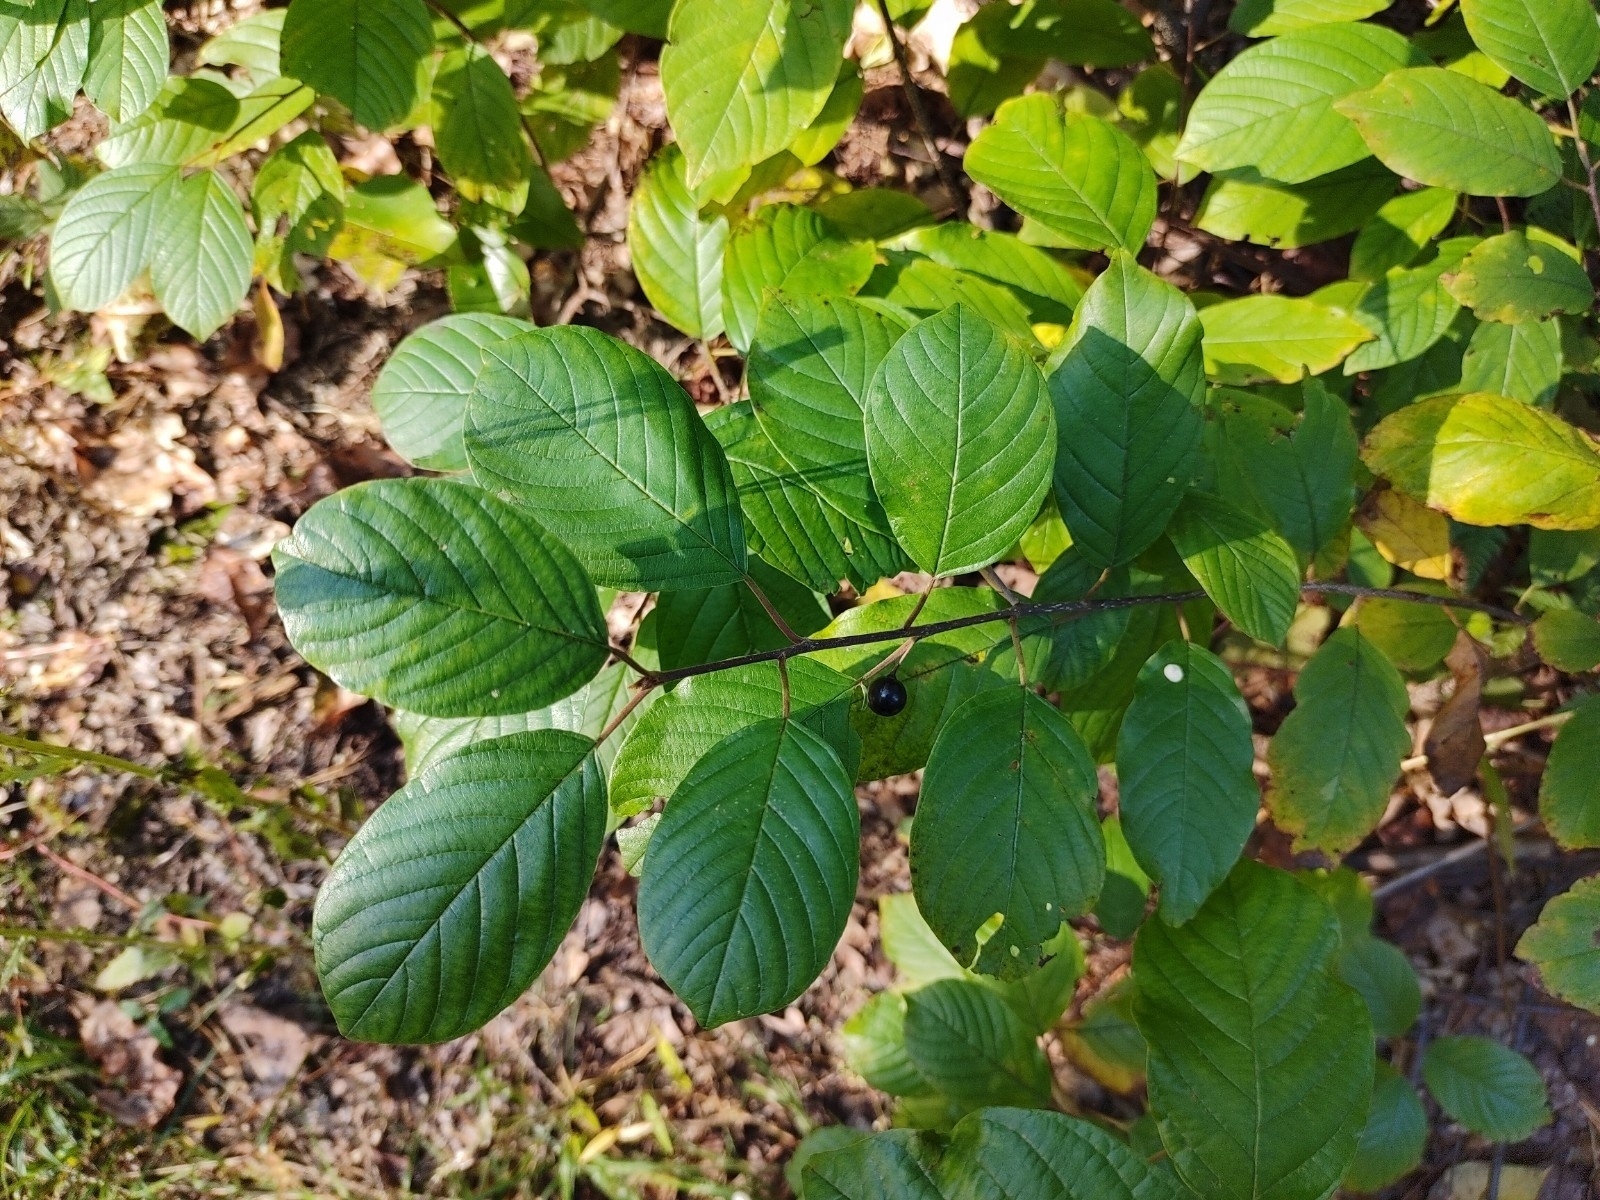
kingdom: Plantae
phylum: Tracheophyta
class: Magnoliopsida
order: Rosales
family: Rhamnaceae
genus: Frangula
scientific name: Frangula alnus
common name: Alder buckthorn
